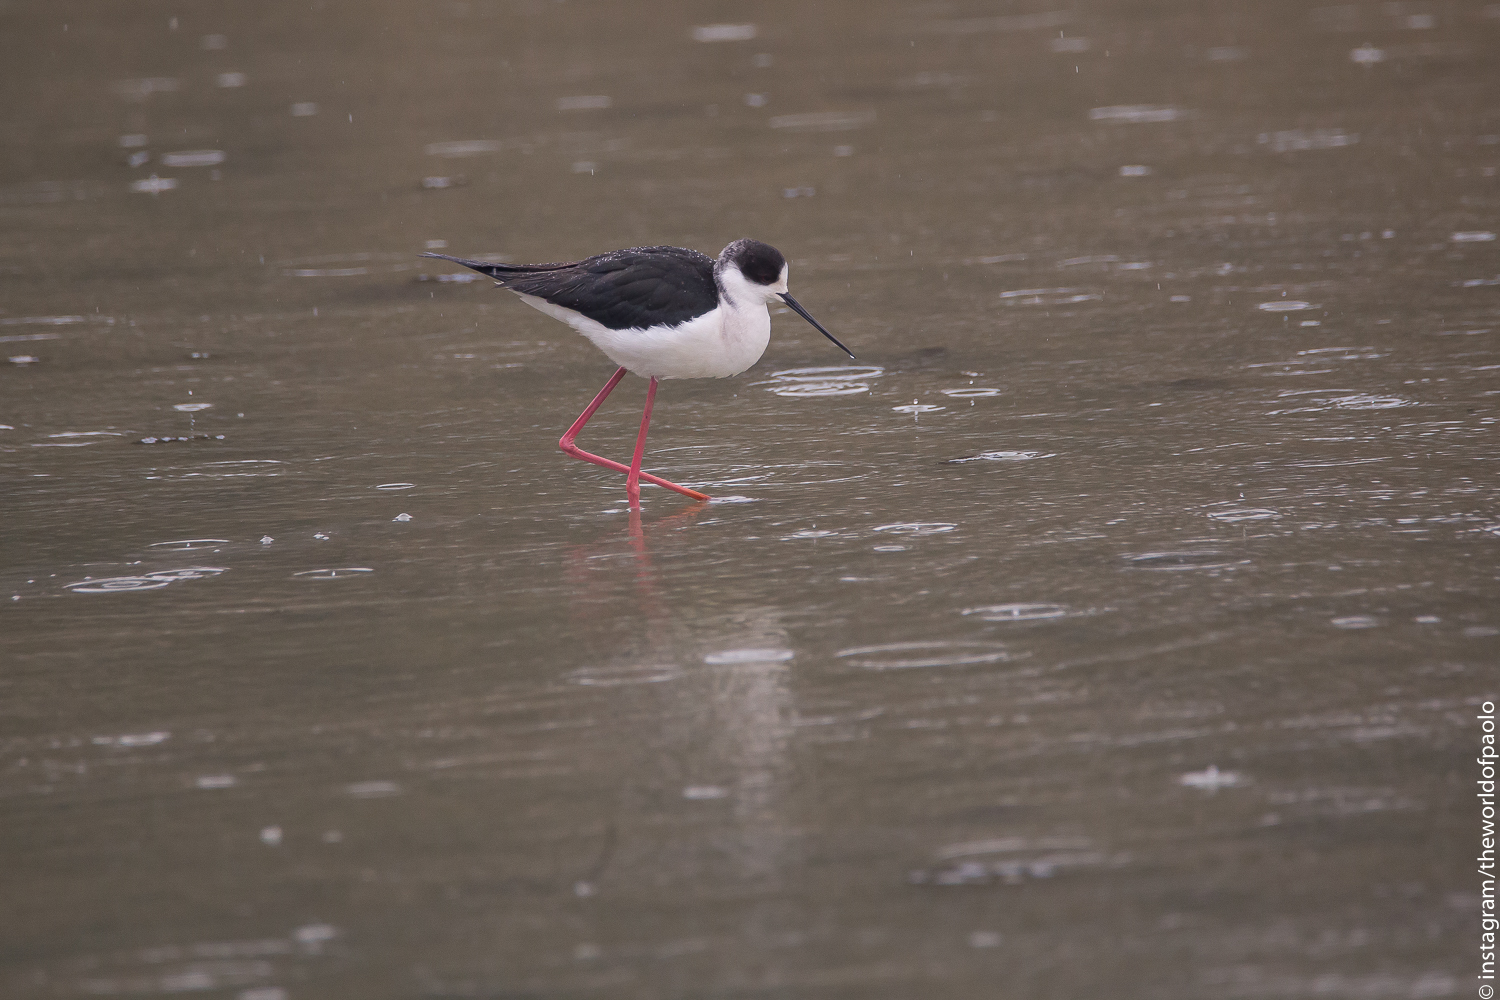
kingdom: Animalia
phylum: Chordata
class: Aves
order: Charadriiformes
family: Recurvirostridae
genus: Himantopus
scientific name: Himantopus himantopus
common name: Black-winged stilt
